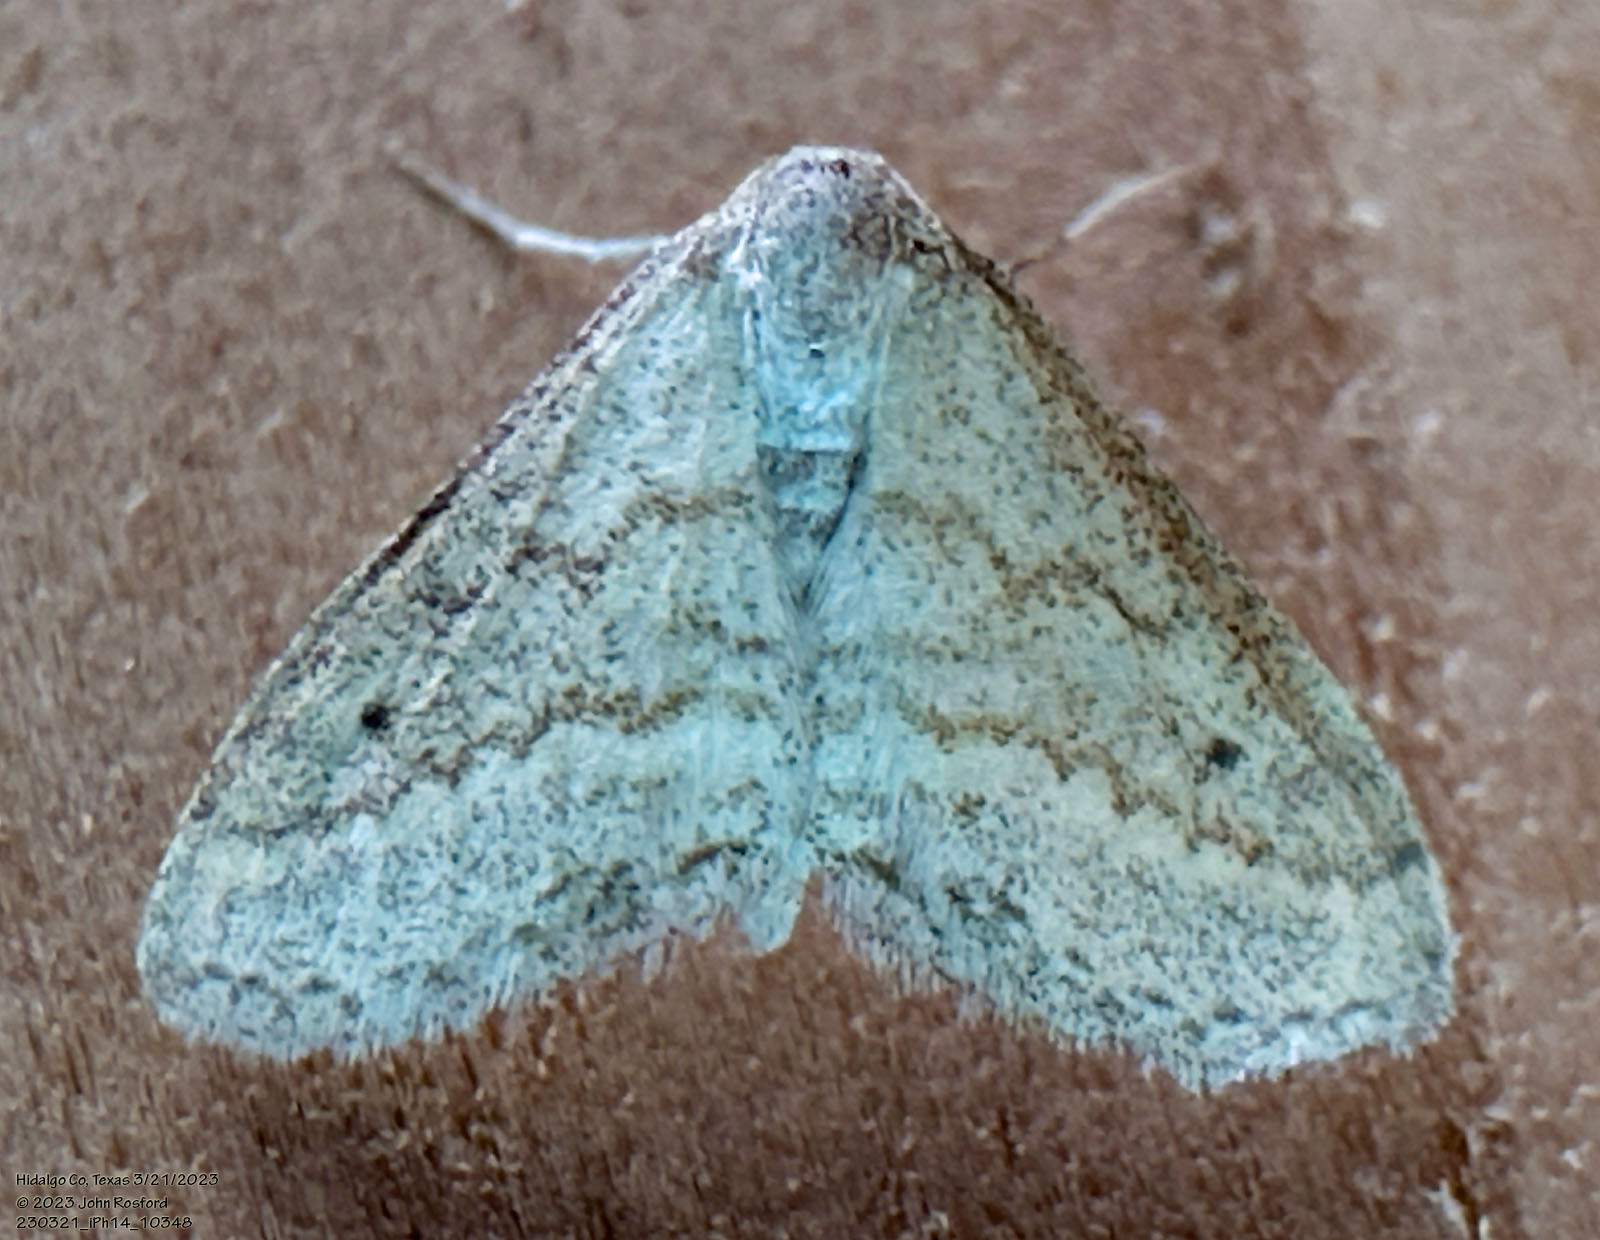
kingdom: Animalia
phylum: Arthropoda
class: Insecta
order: Lepidoptera
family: Geometridae
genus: Lobocleta
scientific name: Lobocleta plemyraria
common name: Straight-lined wave
